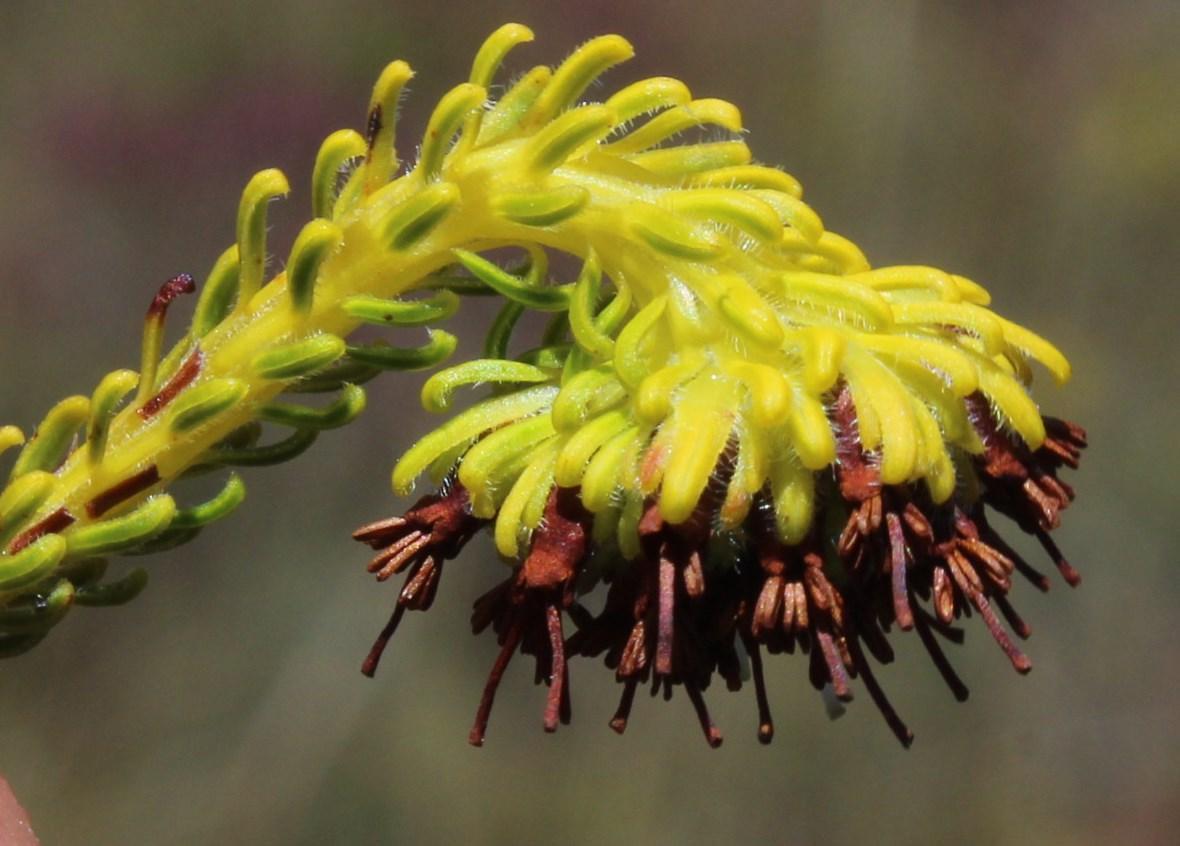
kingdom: Plantae
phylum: Tracheophyta
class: Magnoliopsida
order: Ericales
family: Ericaceae
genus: Erica
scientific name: Erica bruniifolia
